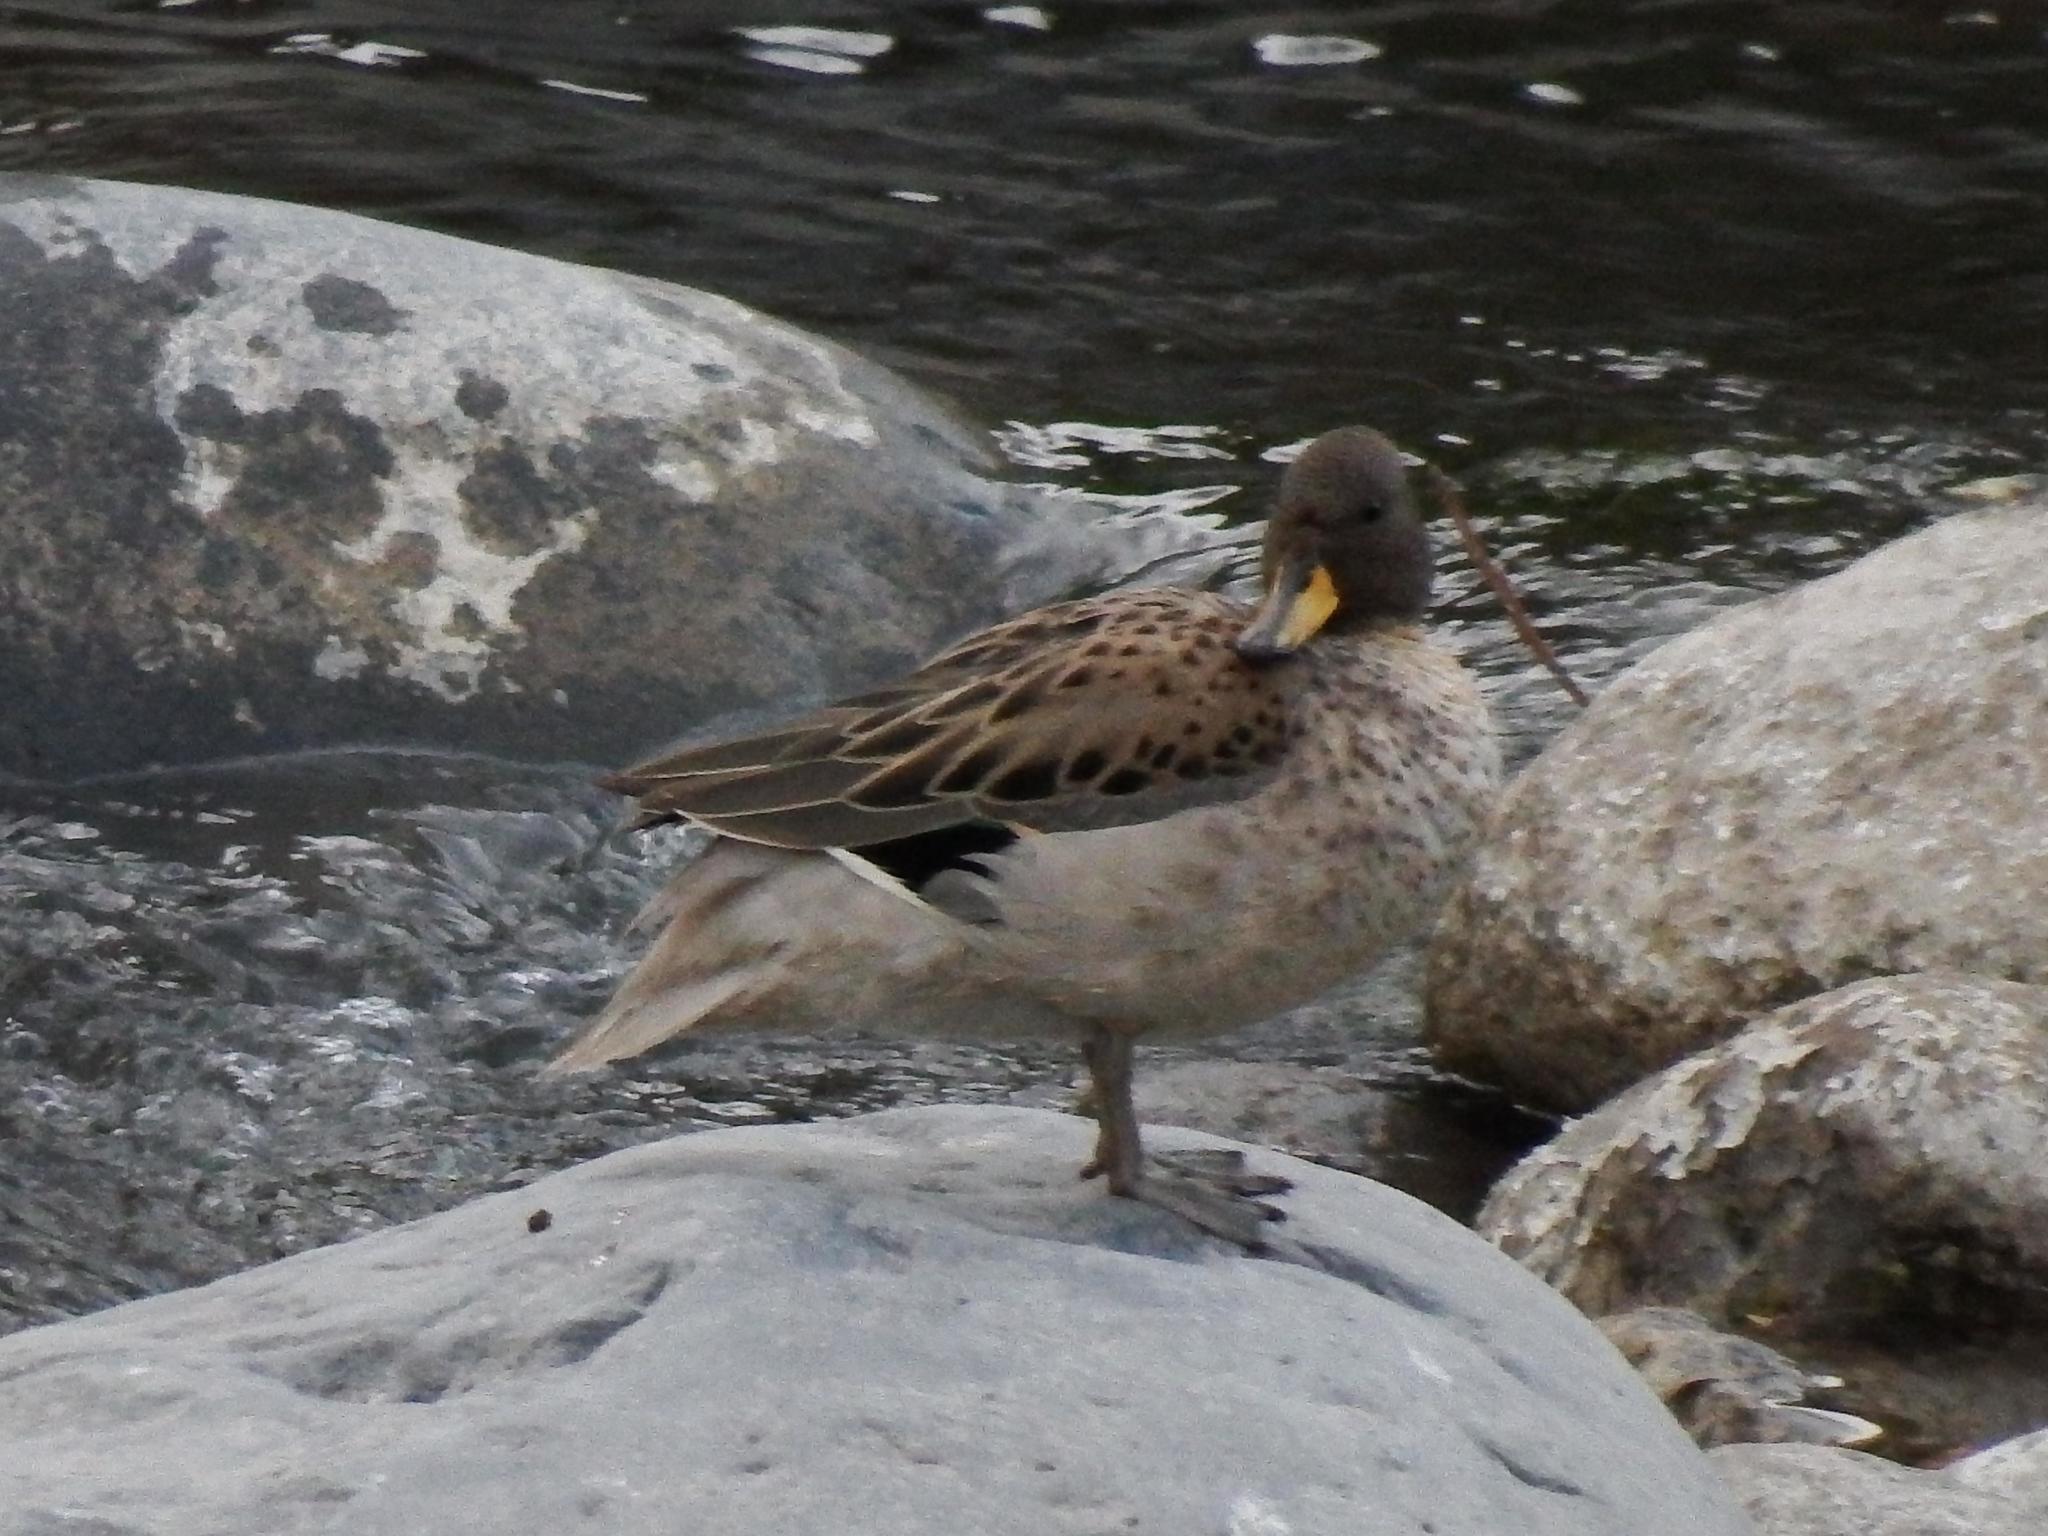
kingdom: Animalia
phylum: Chordata
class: Aves
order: Anseriformes
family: Anatidae
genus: Anas
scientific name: Anas flavirostris
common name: Yellow-billed teal
